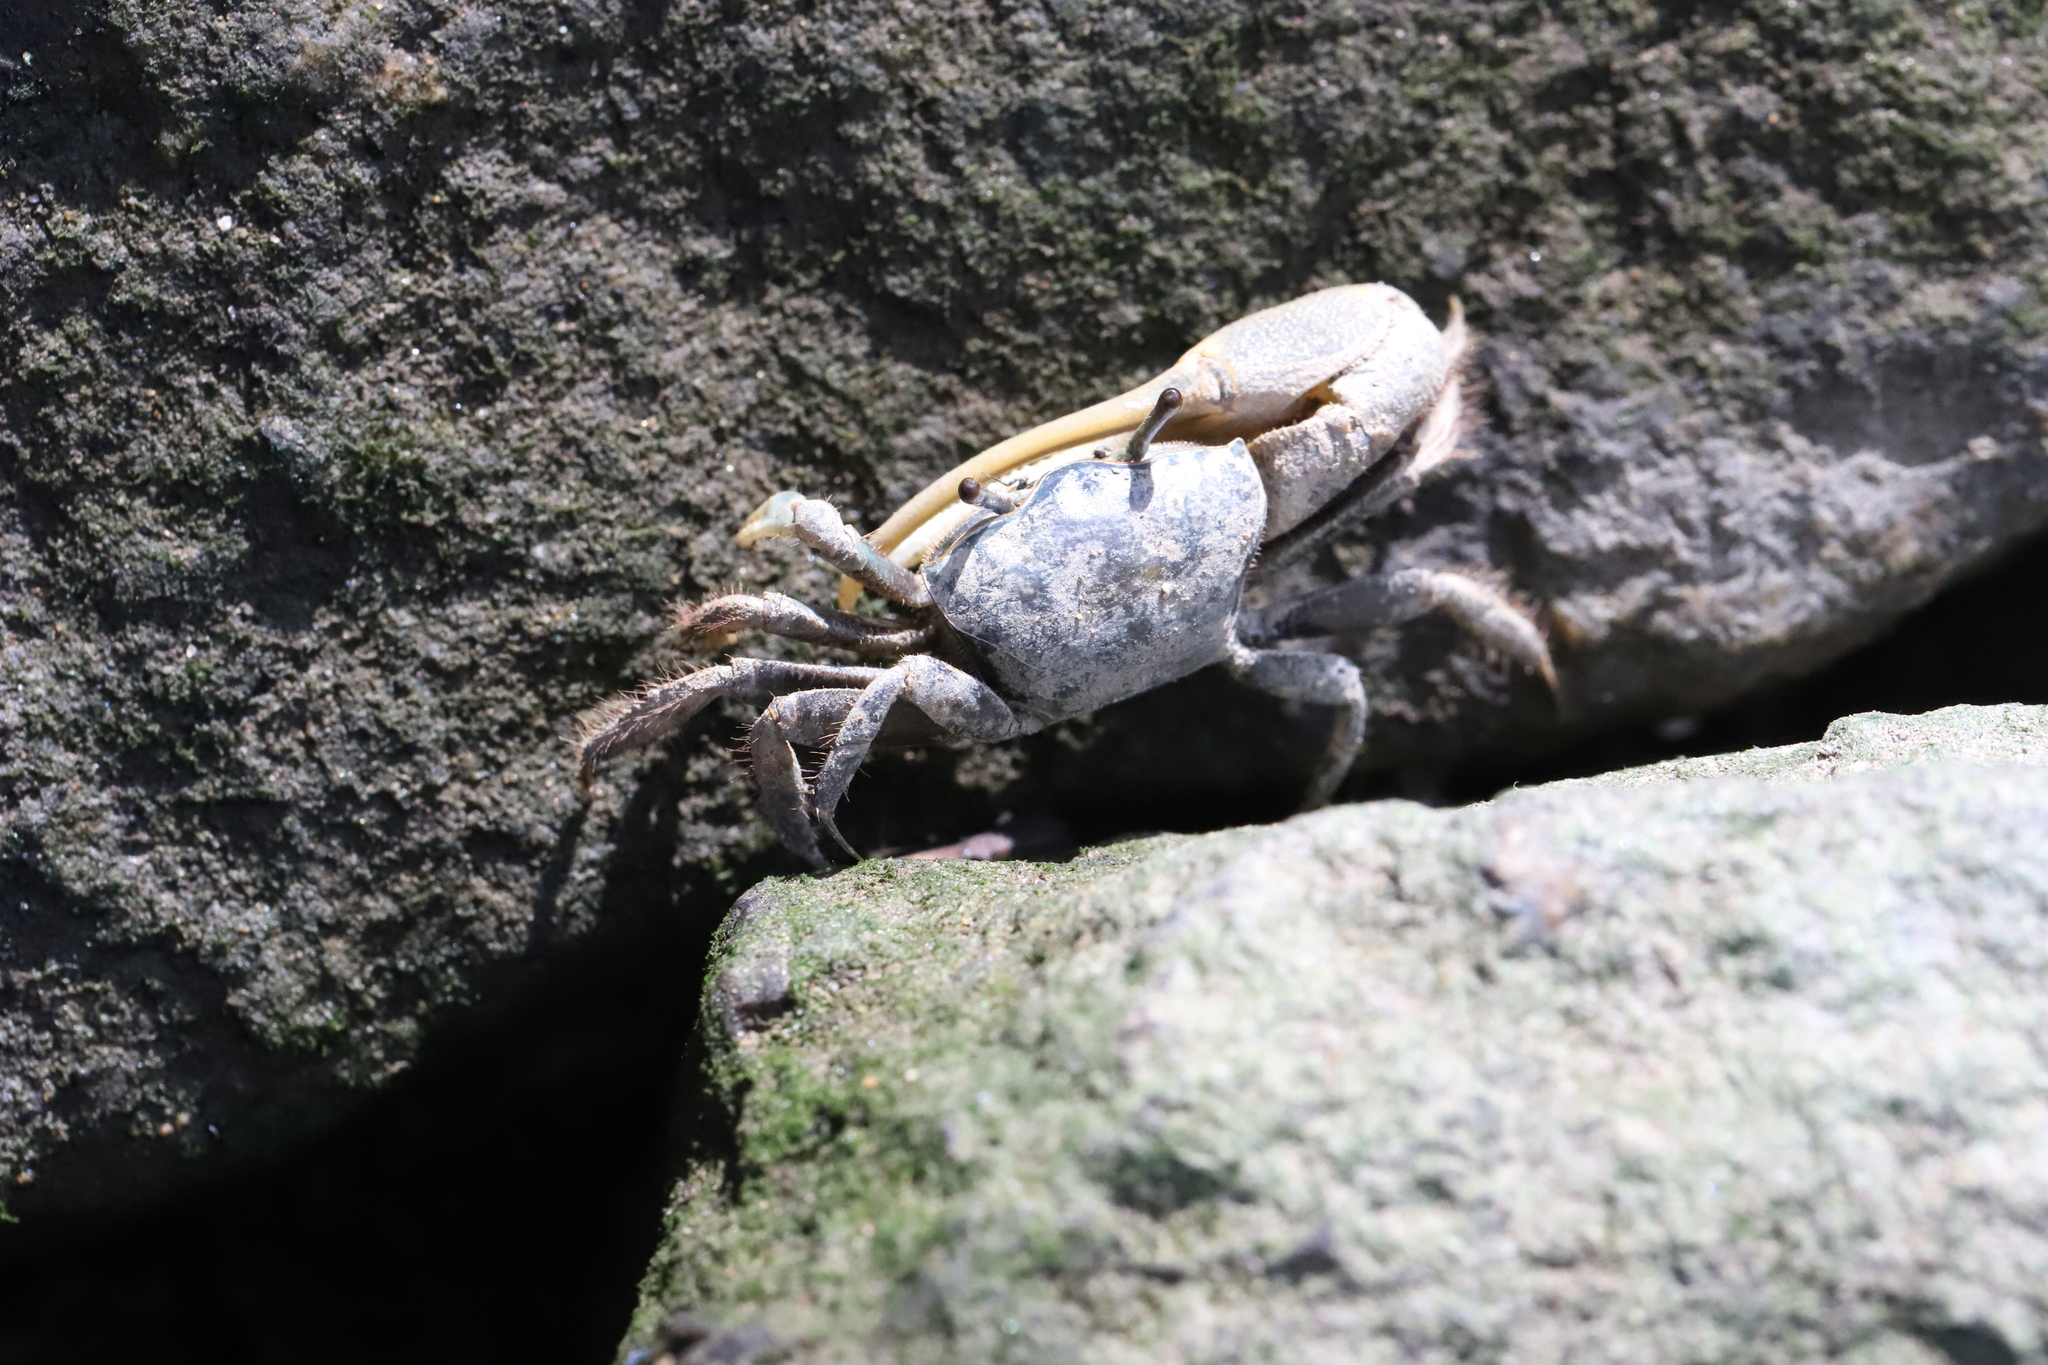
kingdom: Animalia
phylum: Arthropoda
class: Malacostraca
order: Decapoda
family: Ocypodidae
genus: Minuca
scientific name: Minuca pugnax
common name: Mud fiddler crab
